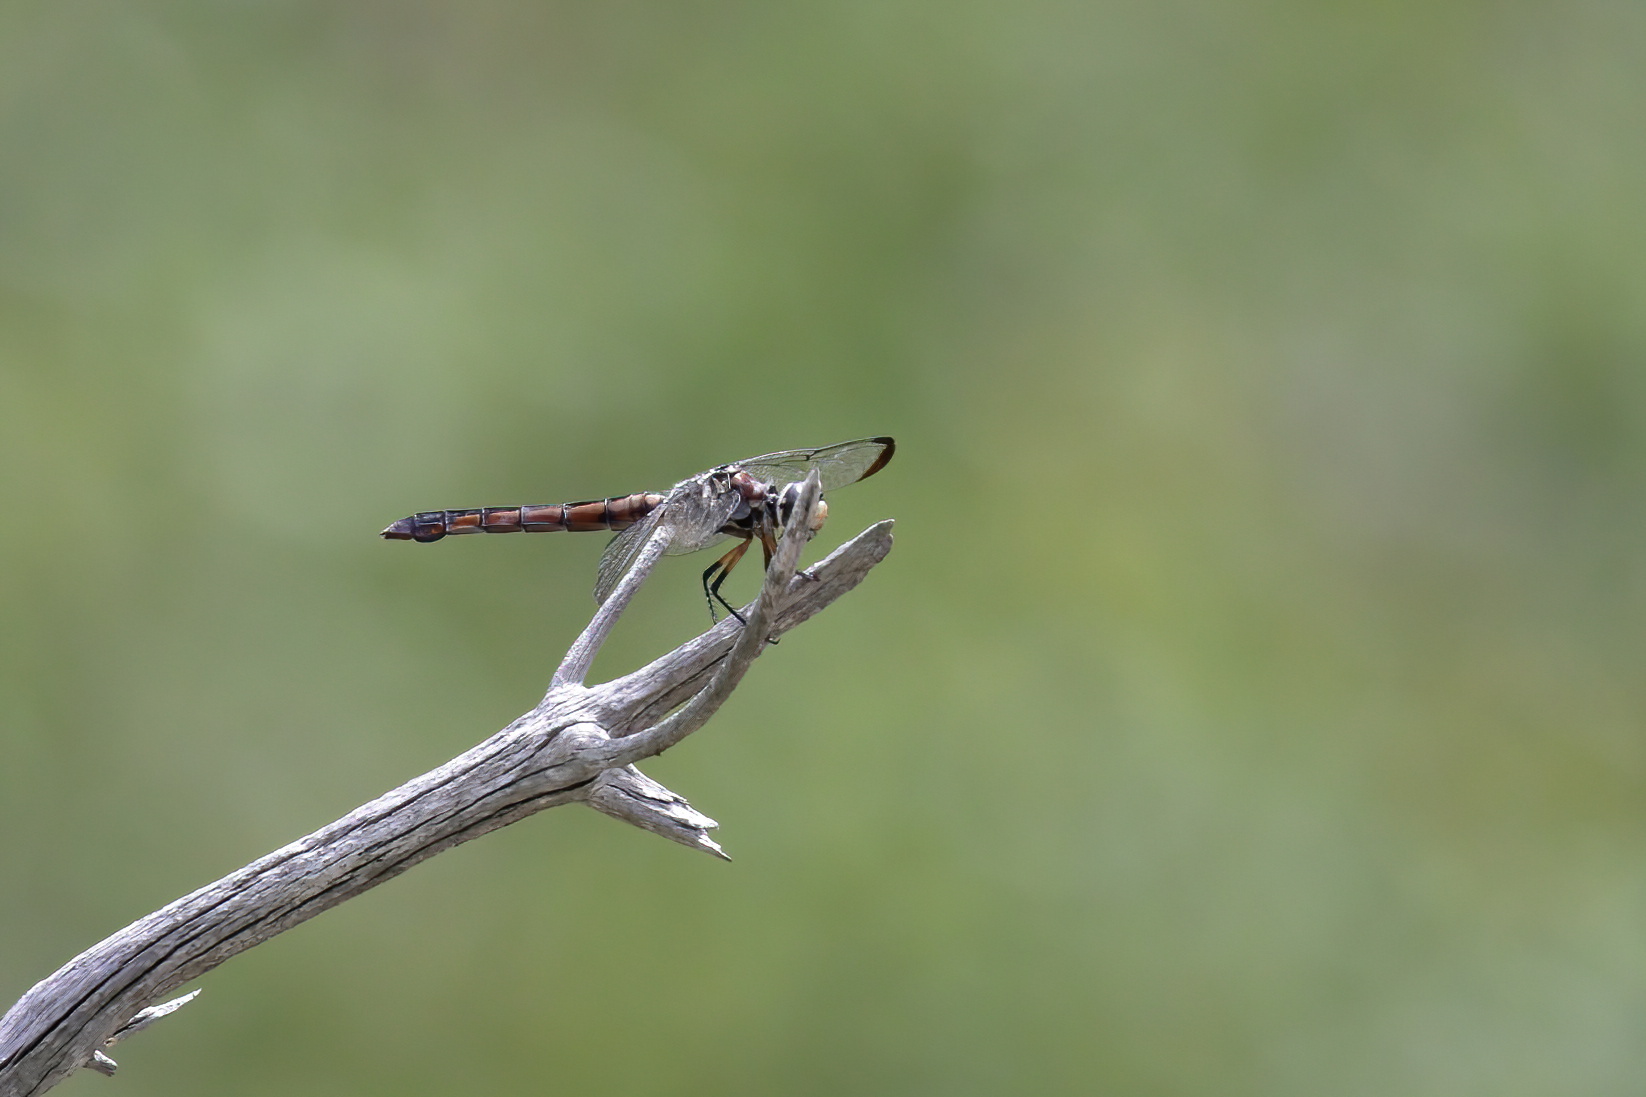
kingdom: Animalia
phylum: Arthropoda
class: Insecta
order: Odonata
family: Libellulidae
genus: Libellula
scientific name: Libellula vibrans
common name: Great blue skimmer
